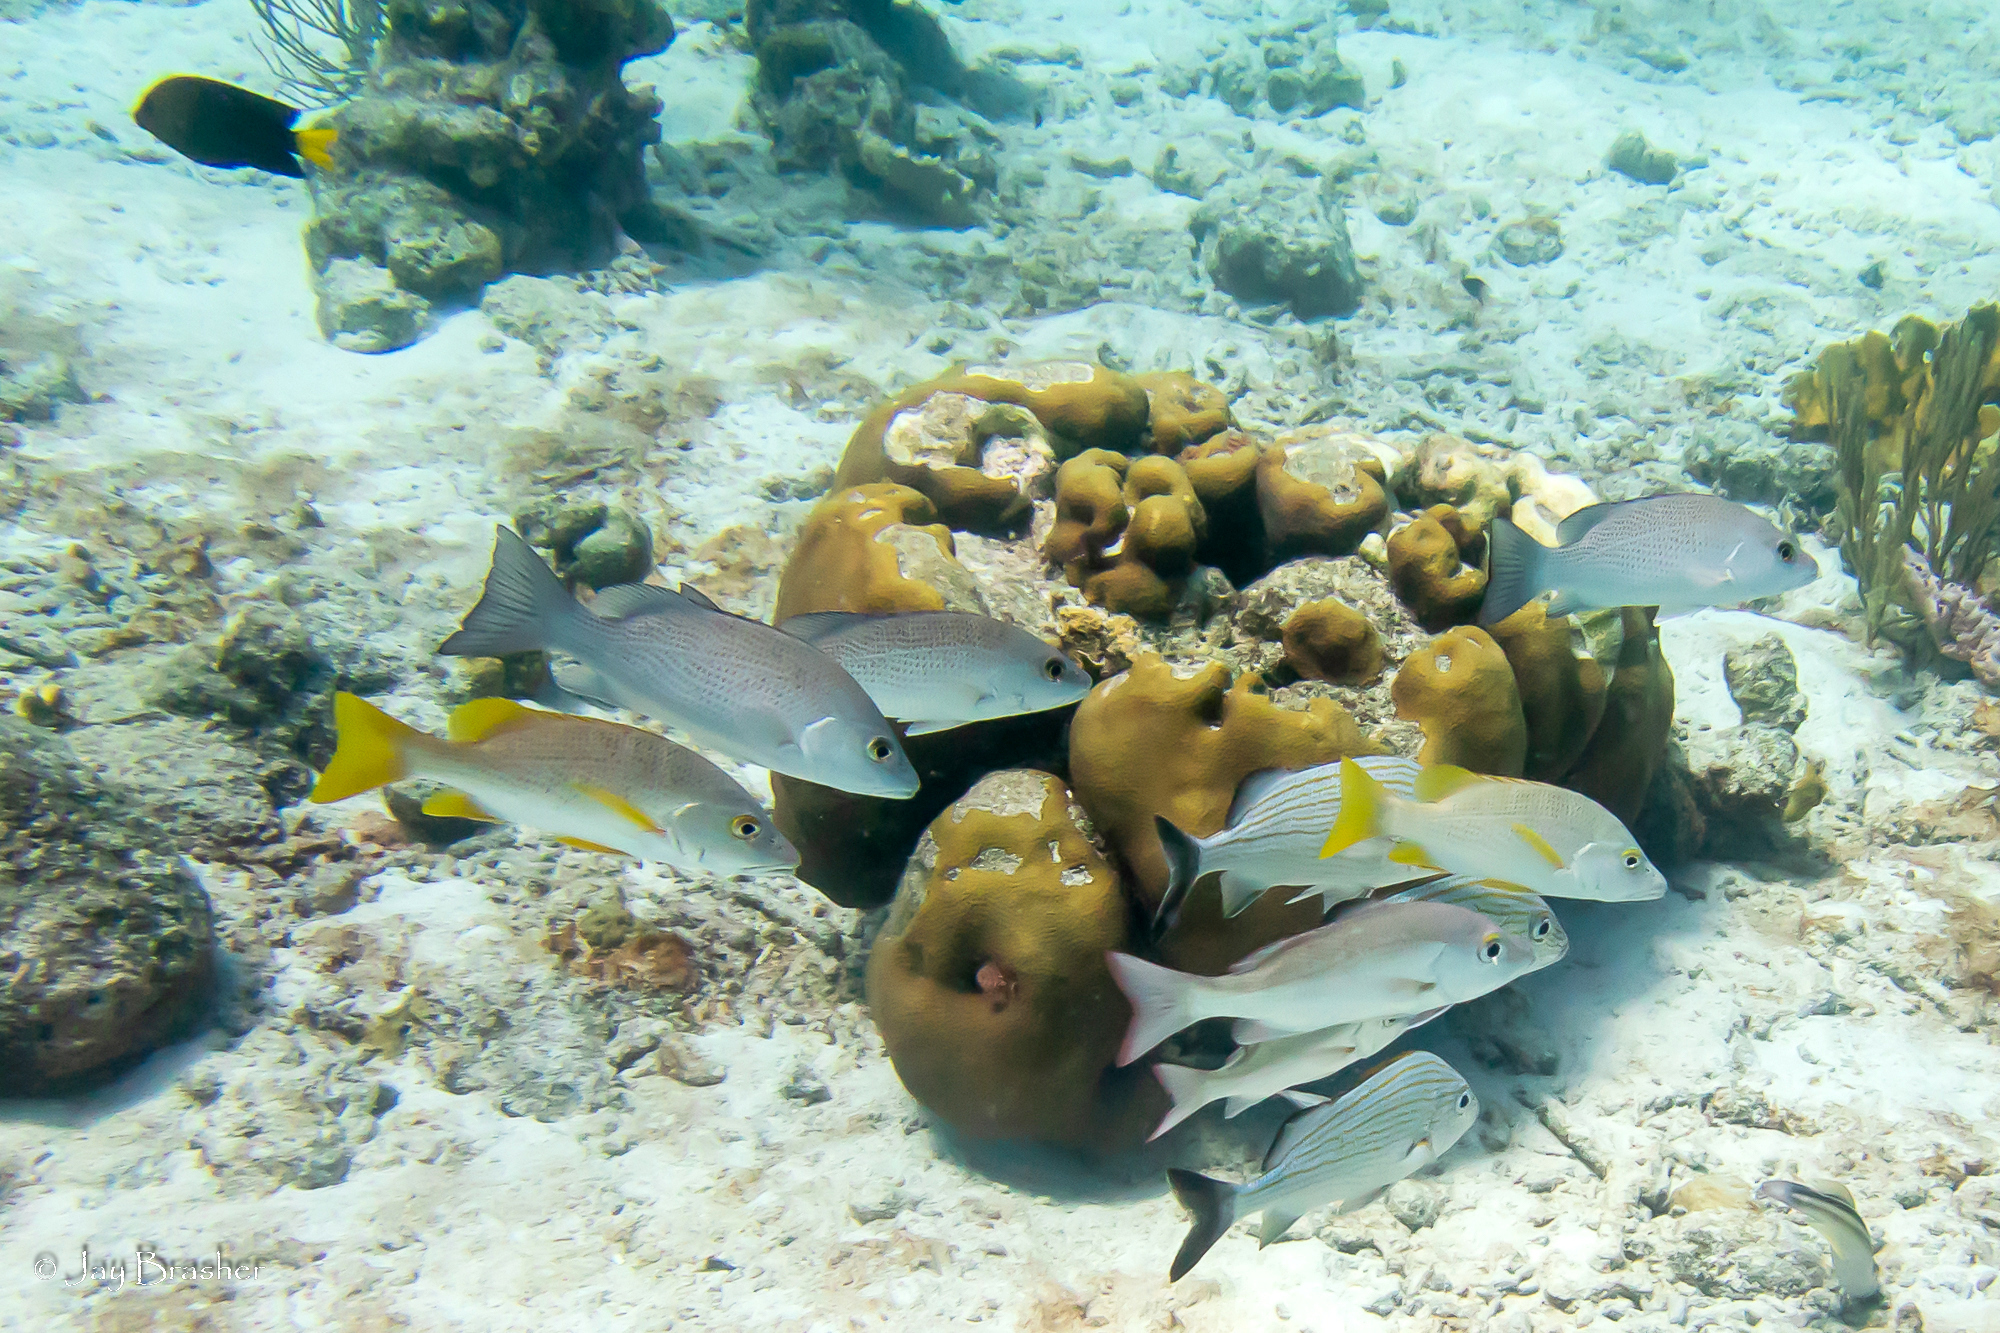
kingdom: Animalia
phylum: Chordata
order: Perciformes
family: Lutjanidae
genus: Lutjanus
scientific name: Lutjanus mahogoni
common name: Spot snapper
